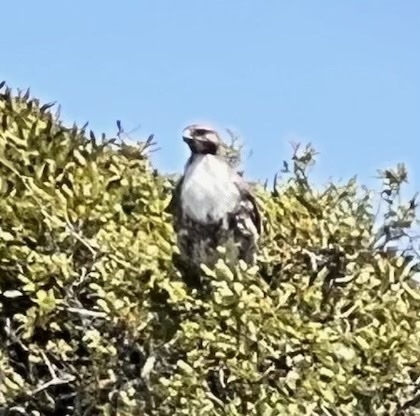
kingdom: Animalia
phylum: Chordata
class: Aves
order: Accipitriformes
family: Accipitridae
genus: Buteo
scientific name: Buteo jamaicensis
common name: Red-tailed hawk
